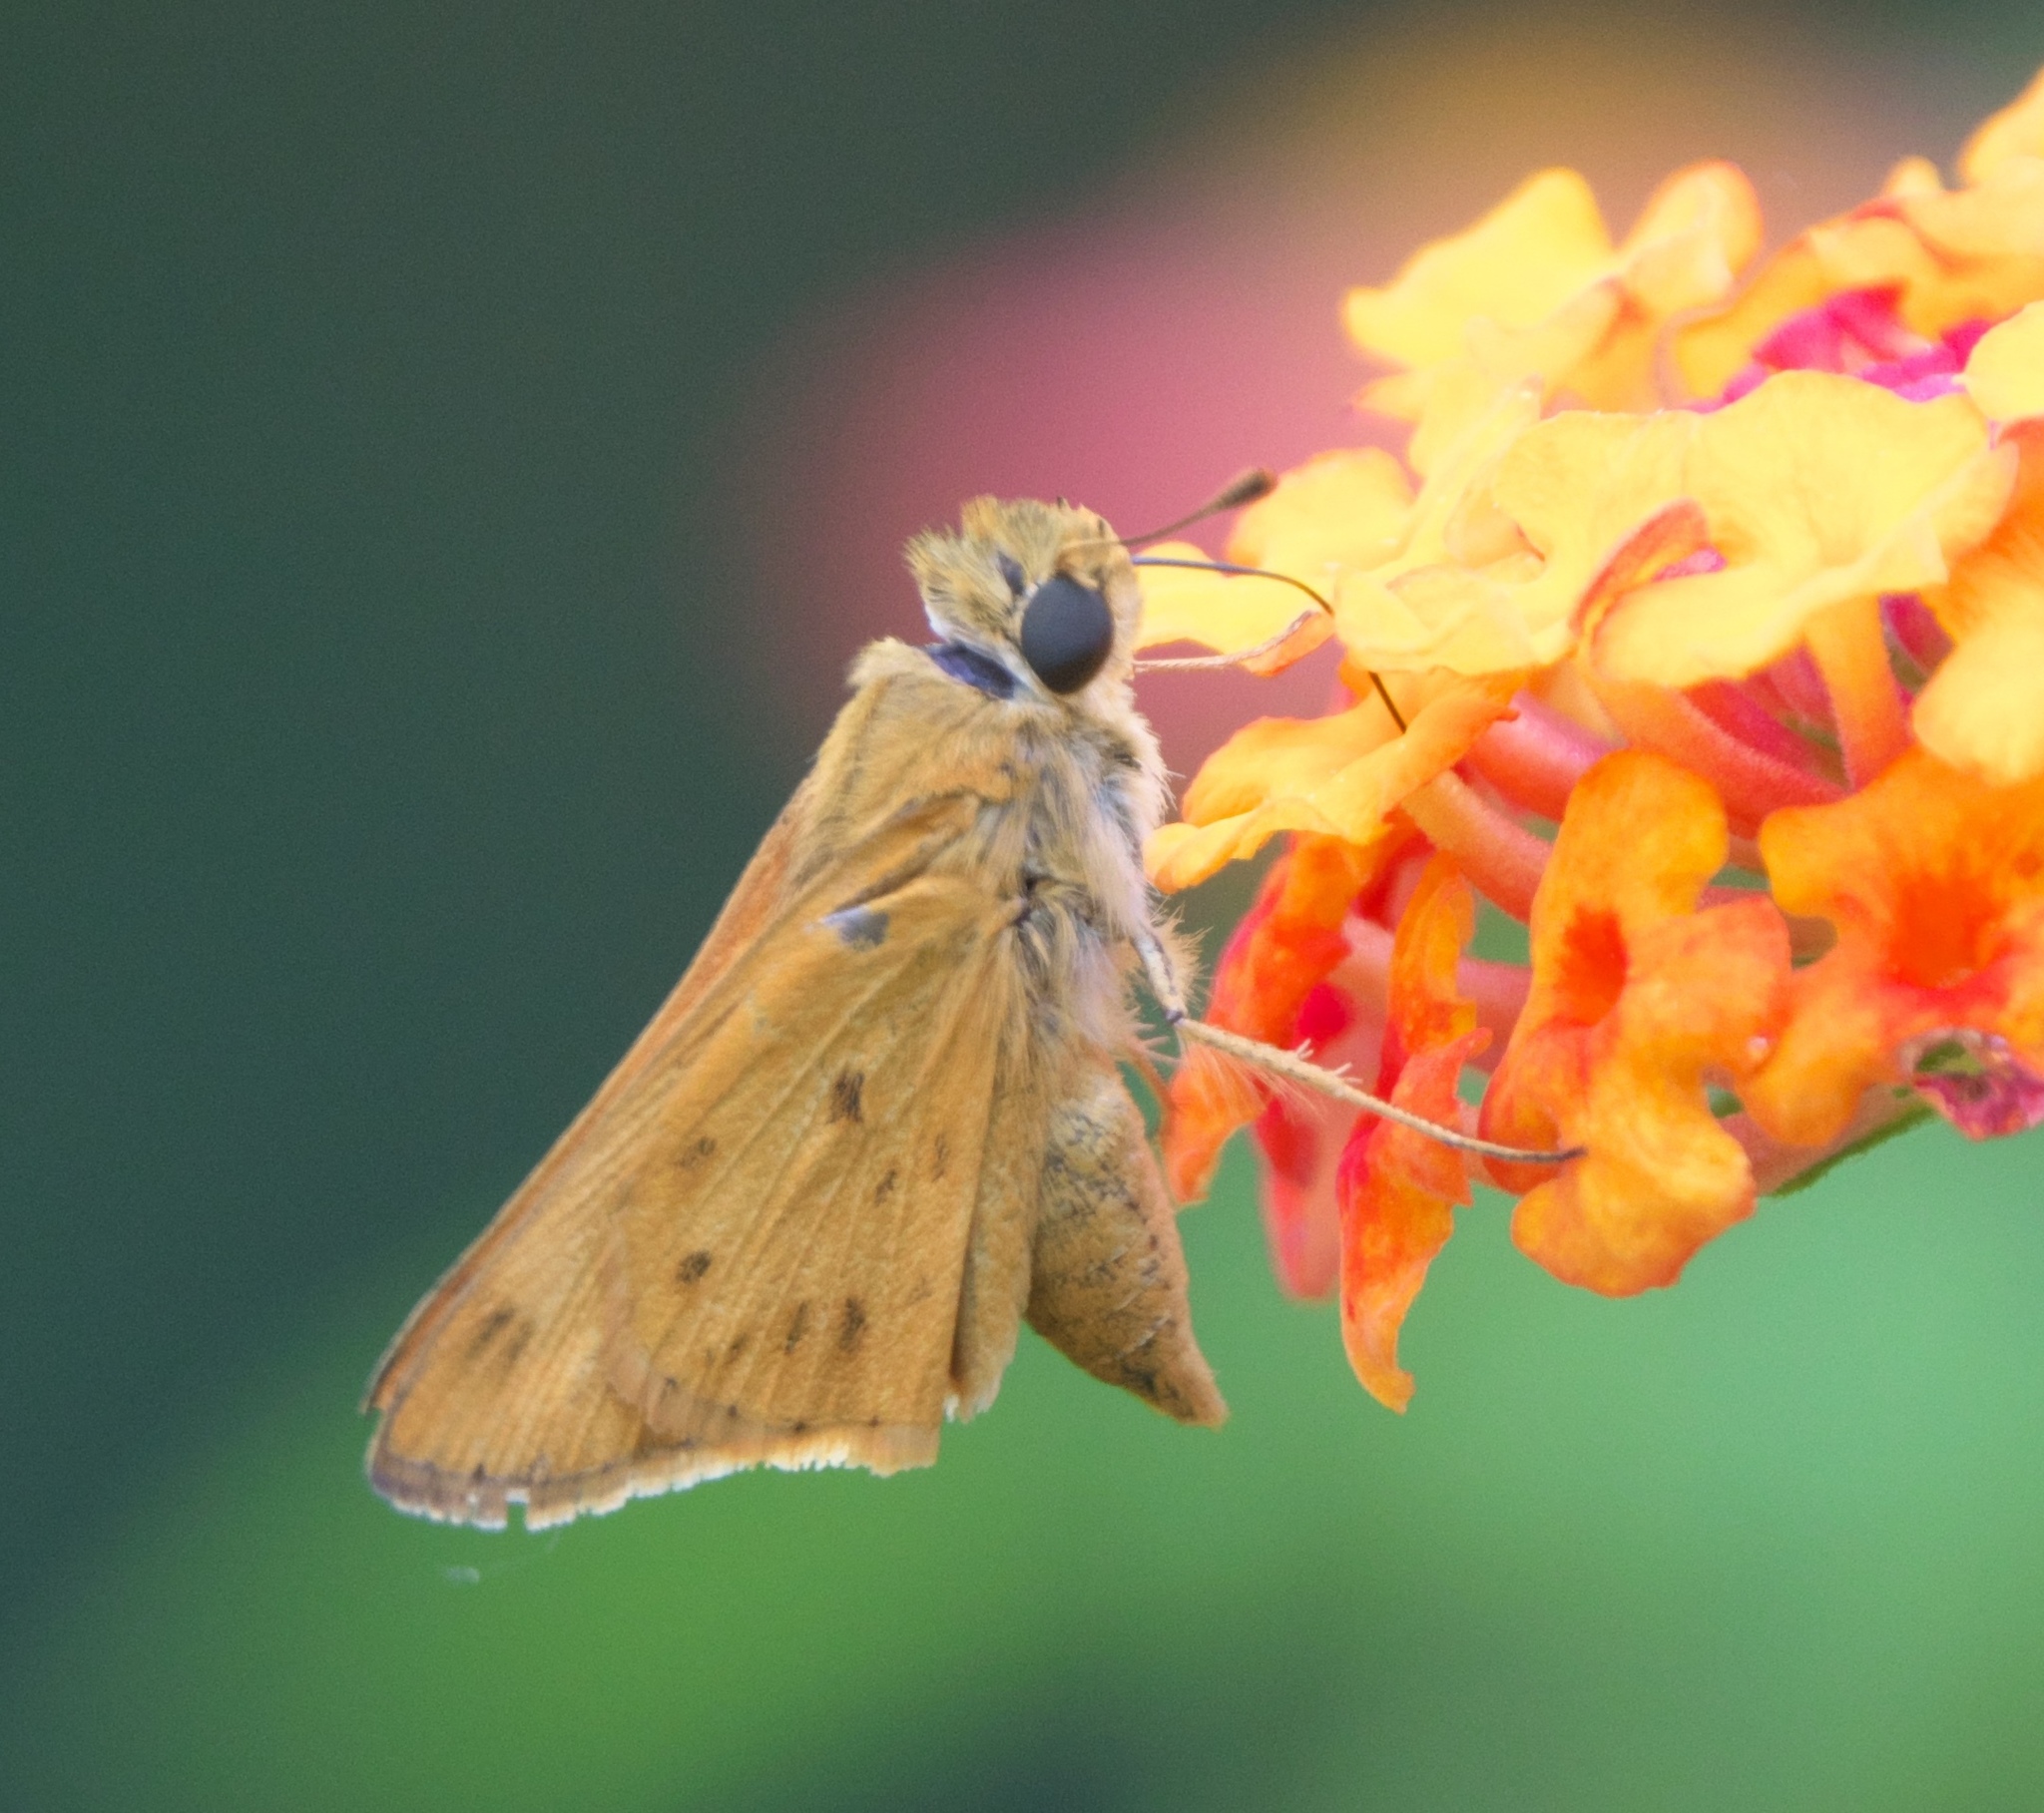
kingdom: Animalia
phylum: Arthropoda
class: Insecta
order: Lepidoptera
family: Hesperiidae
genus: Hylephila
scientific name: Hylephila phyleus
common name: Fiery skipper
